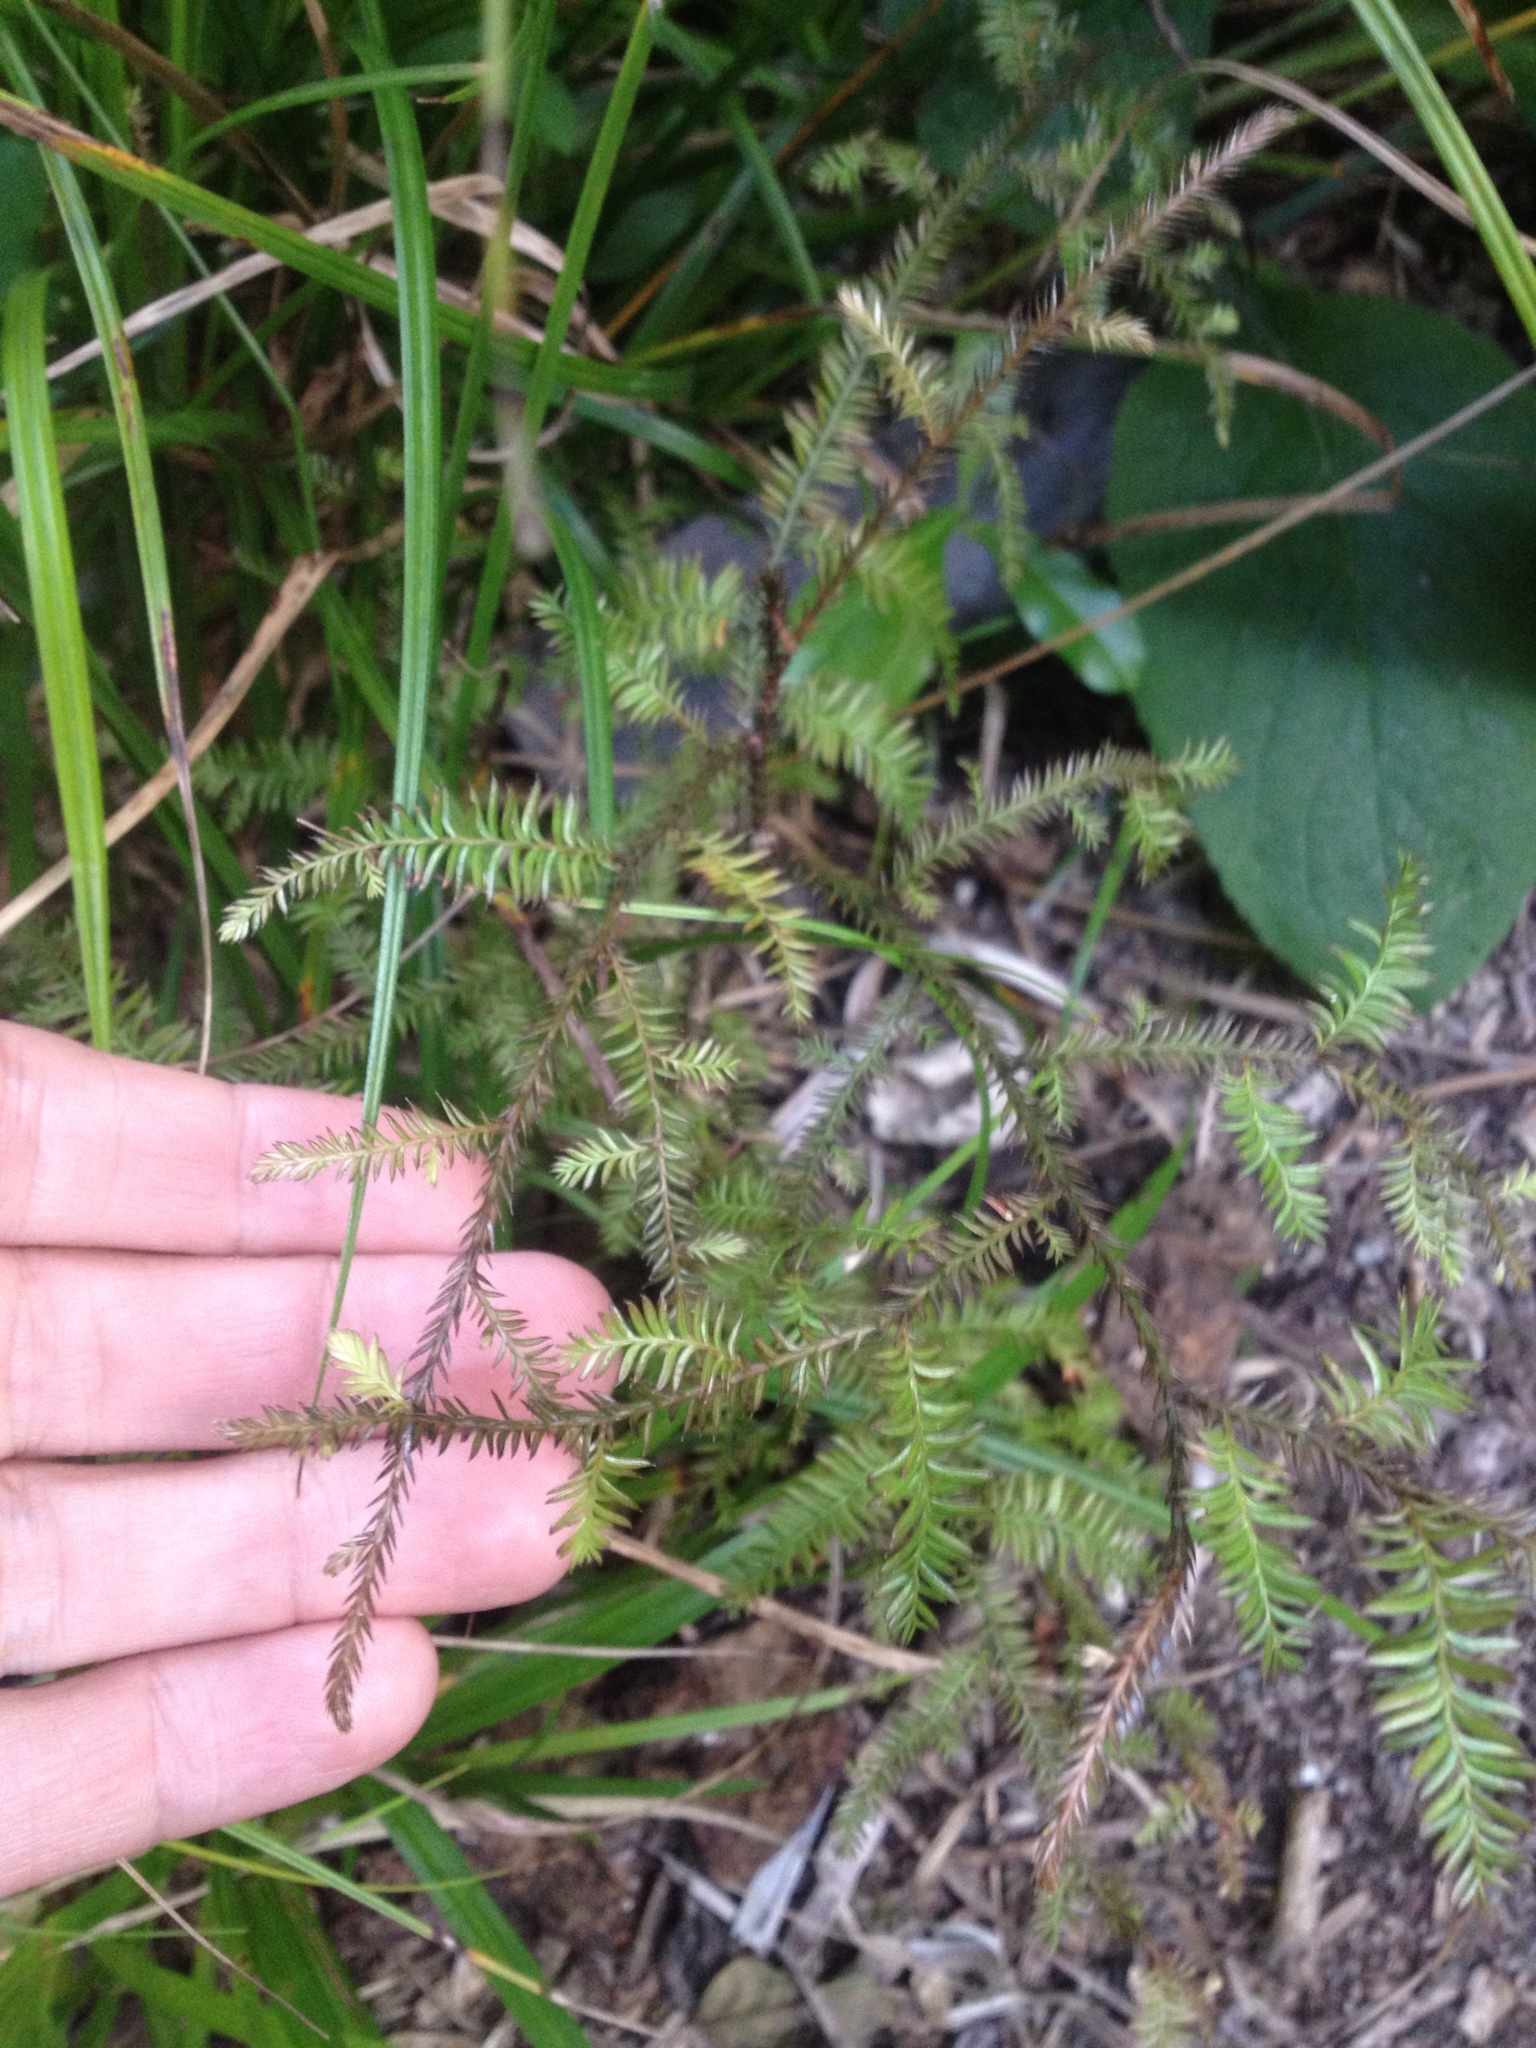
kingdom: Plantae
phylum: Tracheophyta
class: Pinopsida
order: Pinales
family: Podocarpaceae
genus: Dacrycarpus
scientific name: Dacrycarpus dacrydioides
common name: White pine
